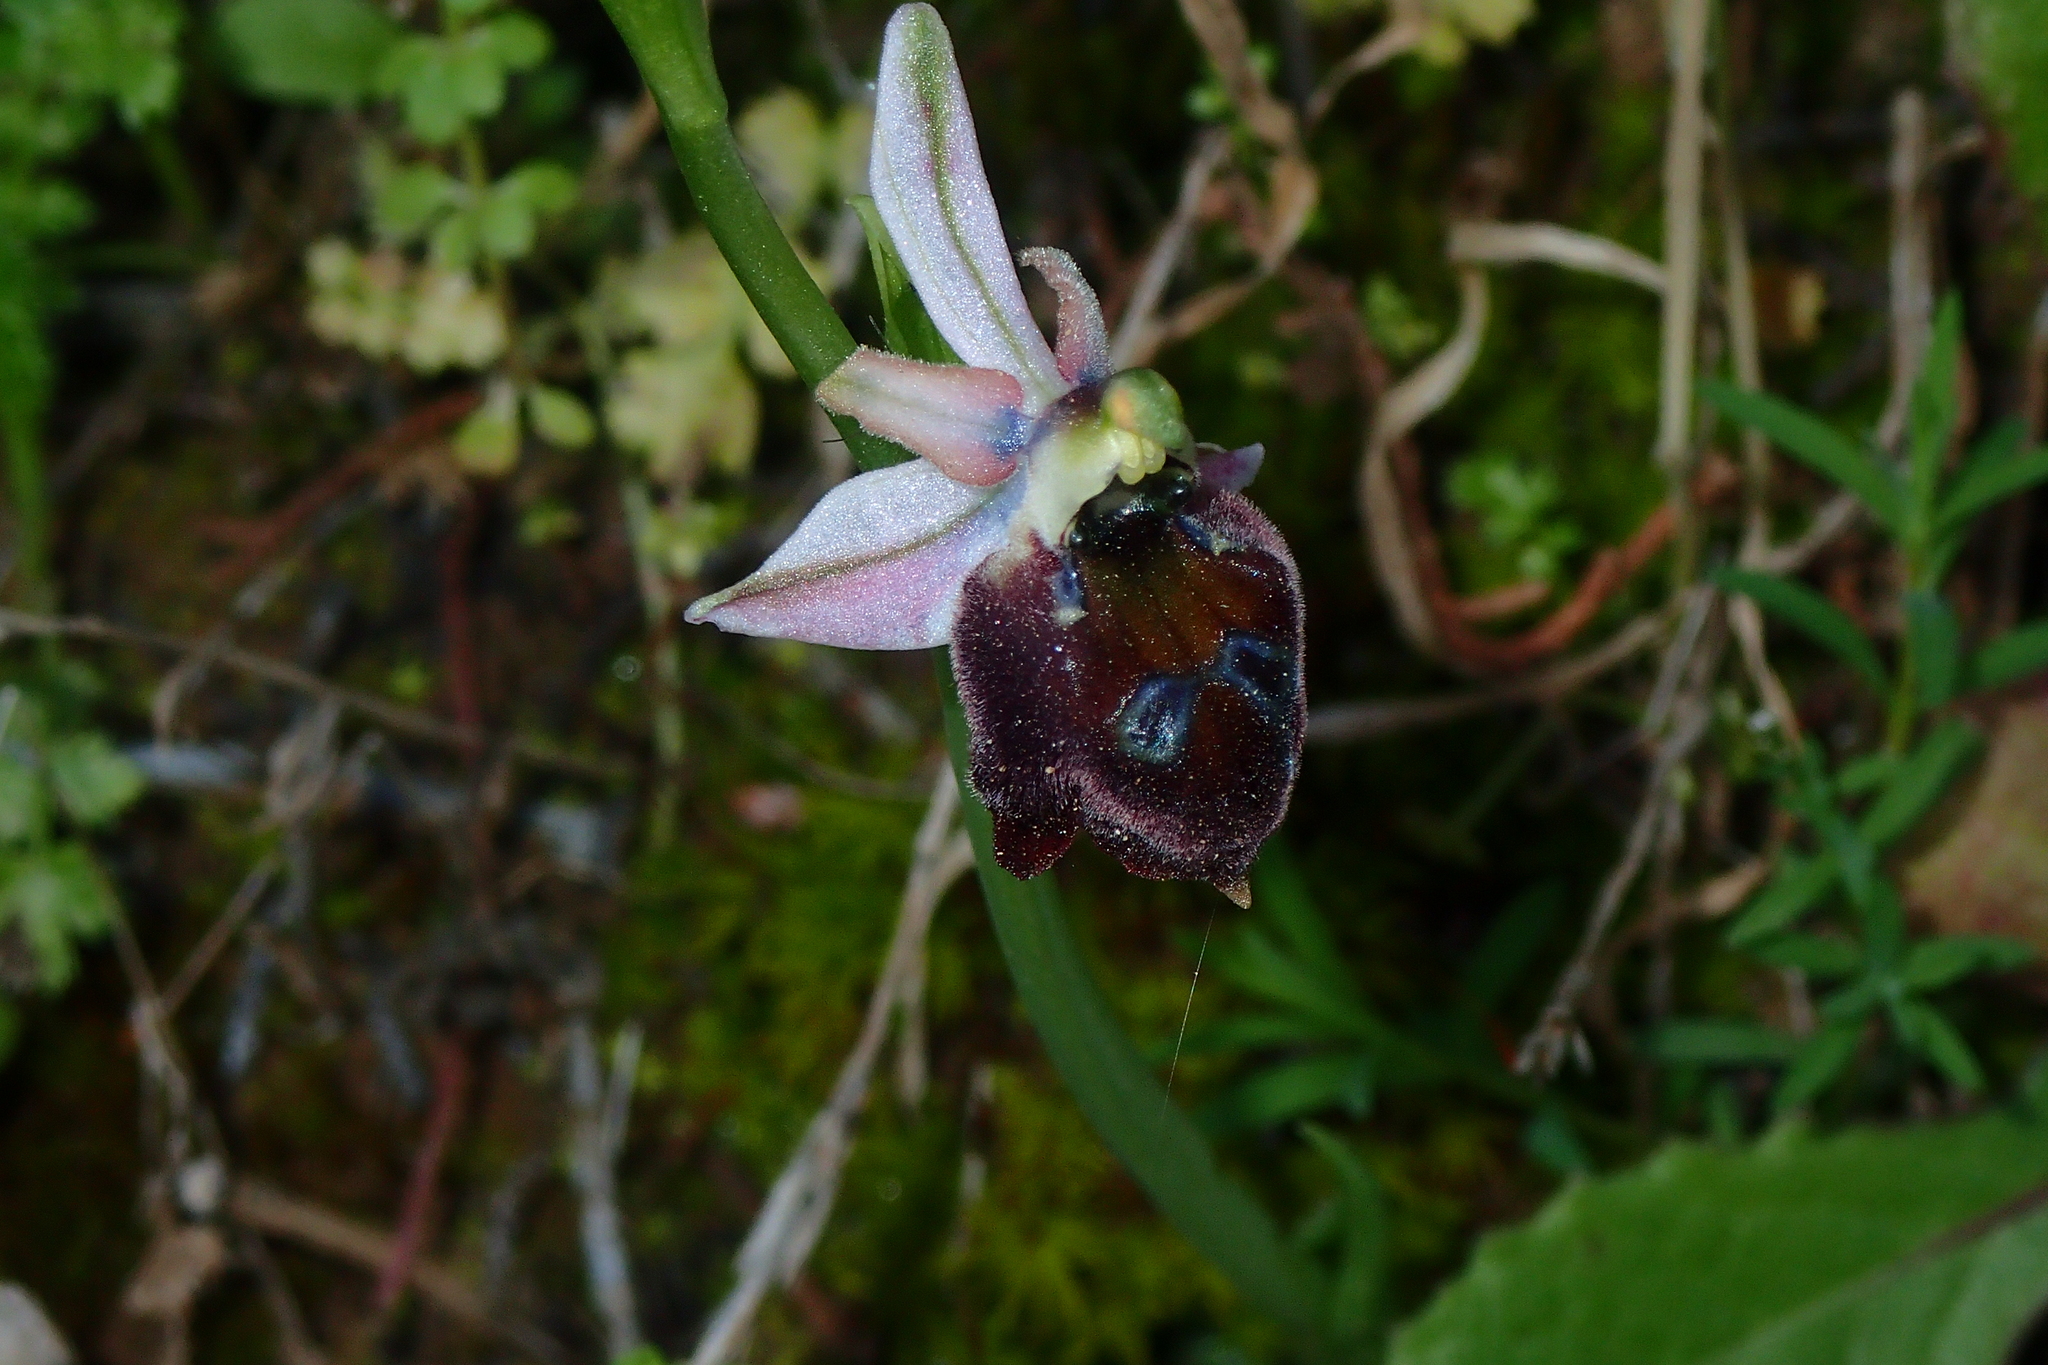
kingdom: Plantae
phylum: Tracheophyta
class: Liliopsida
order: Asparagales
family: Orchidaceae
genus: Ophrys
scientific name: Ophrys argolica
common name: Argolic ophrys
